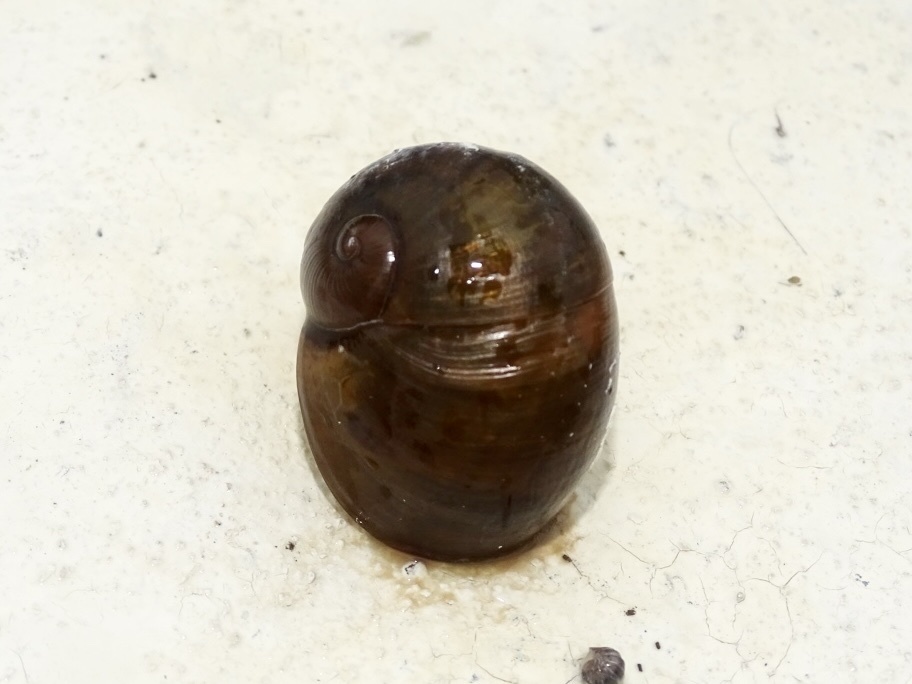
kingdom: Animalia
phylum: Mollusca
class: Gastropoda
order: Stylommatophora
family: Ariophantidae
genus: Megaustenia
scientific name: Megaustenia imperator
